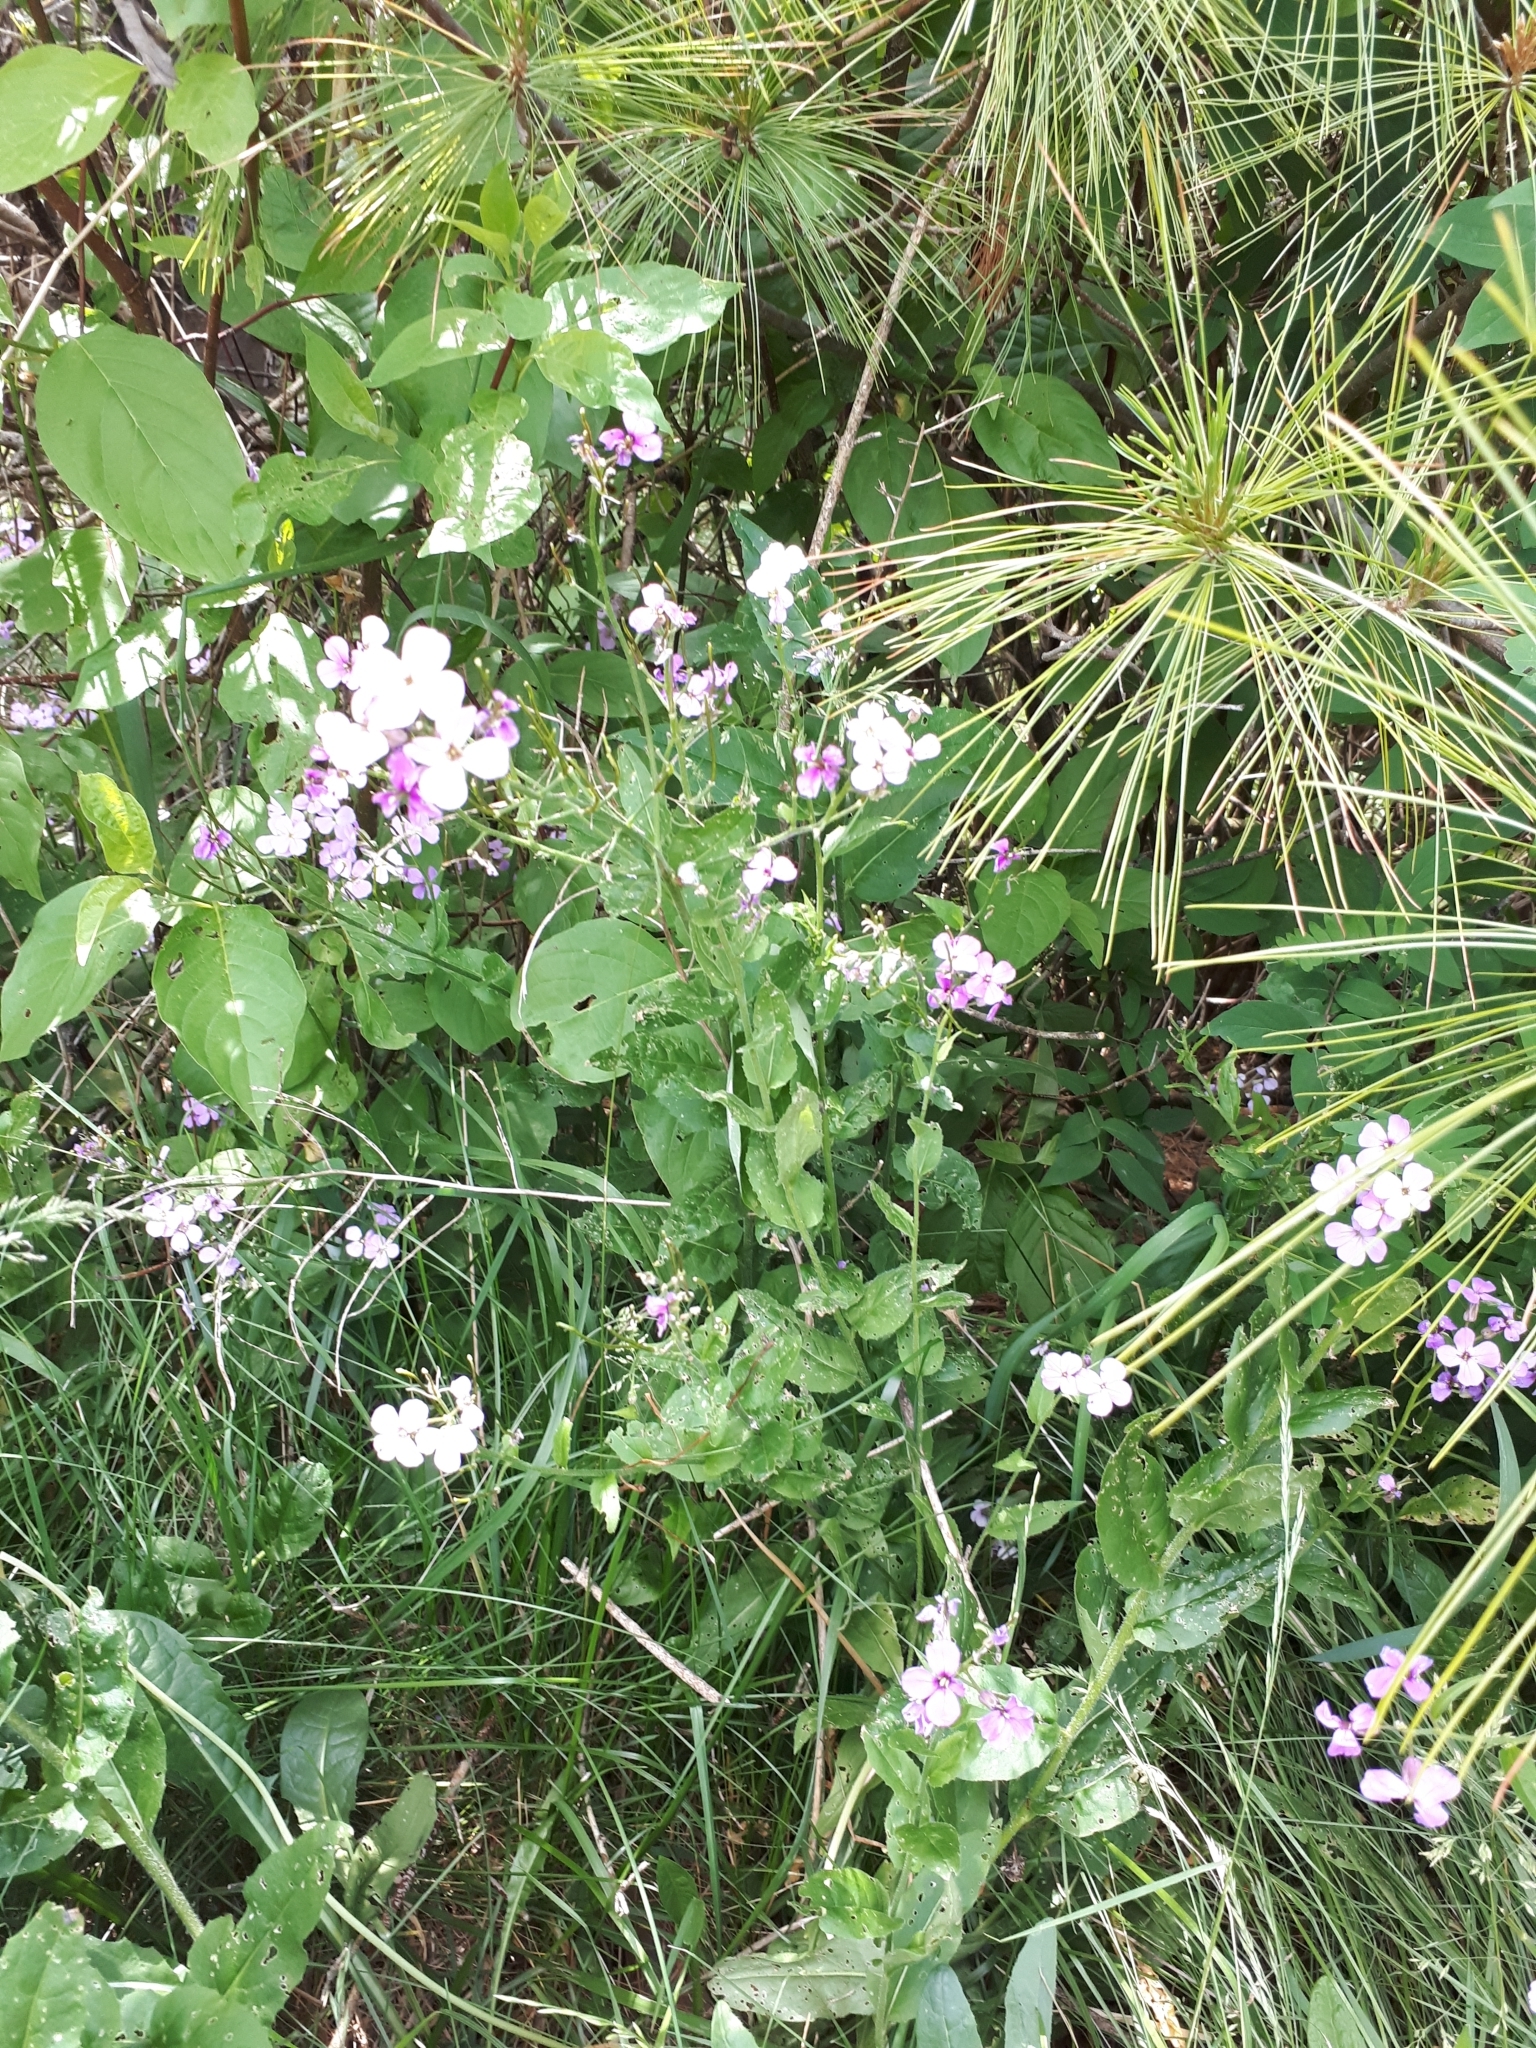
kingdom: Plantae
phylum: Tracheophyta
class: Magnoliopsida
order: Brassicales
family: Brassicaceae
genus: Hesperis
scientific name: Hesperis matronalis
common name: Dame's-violet
